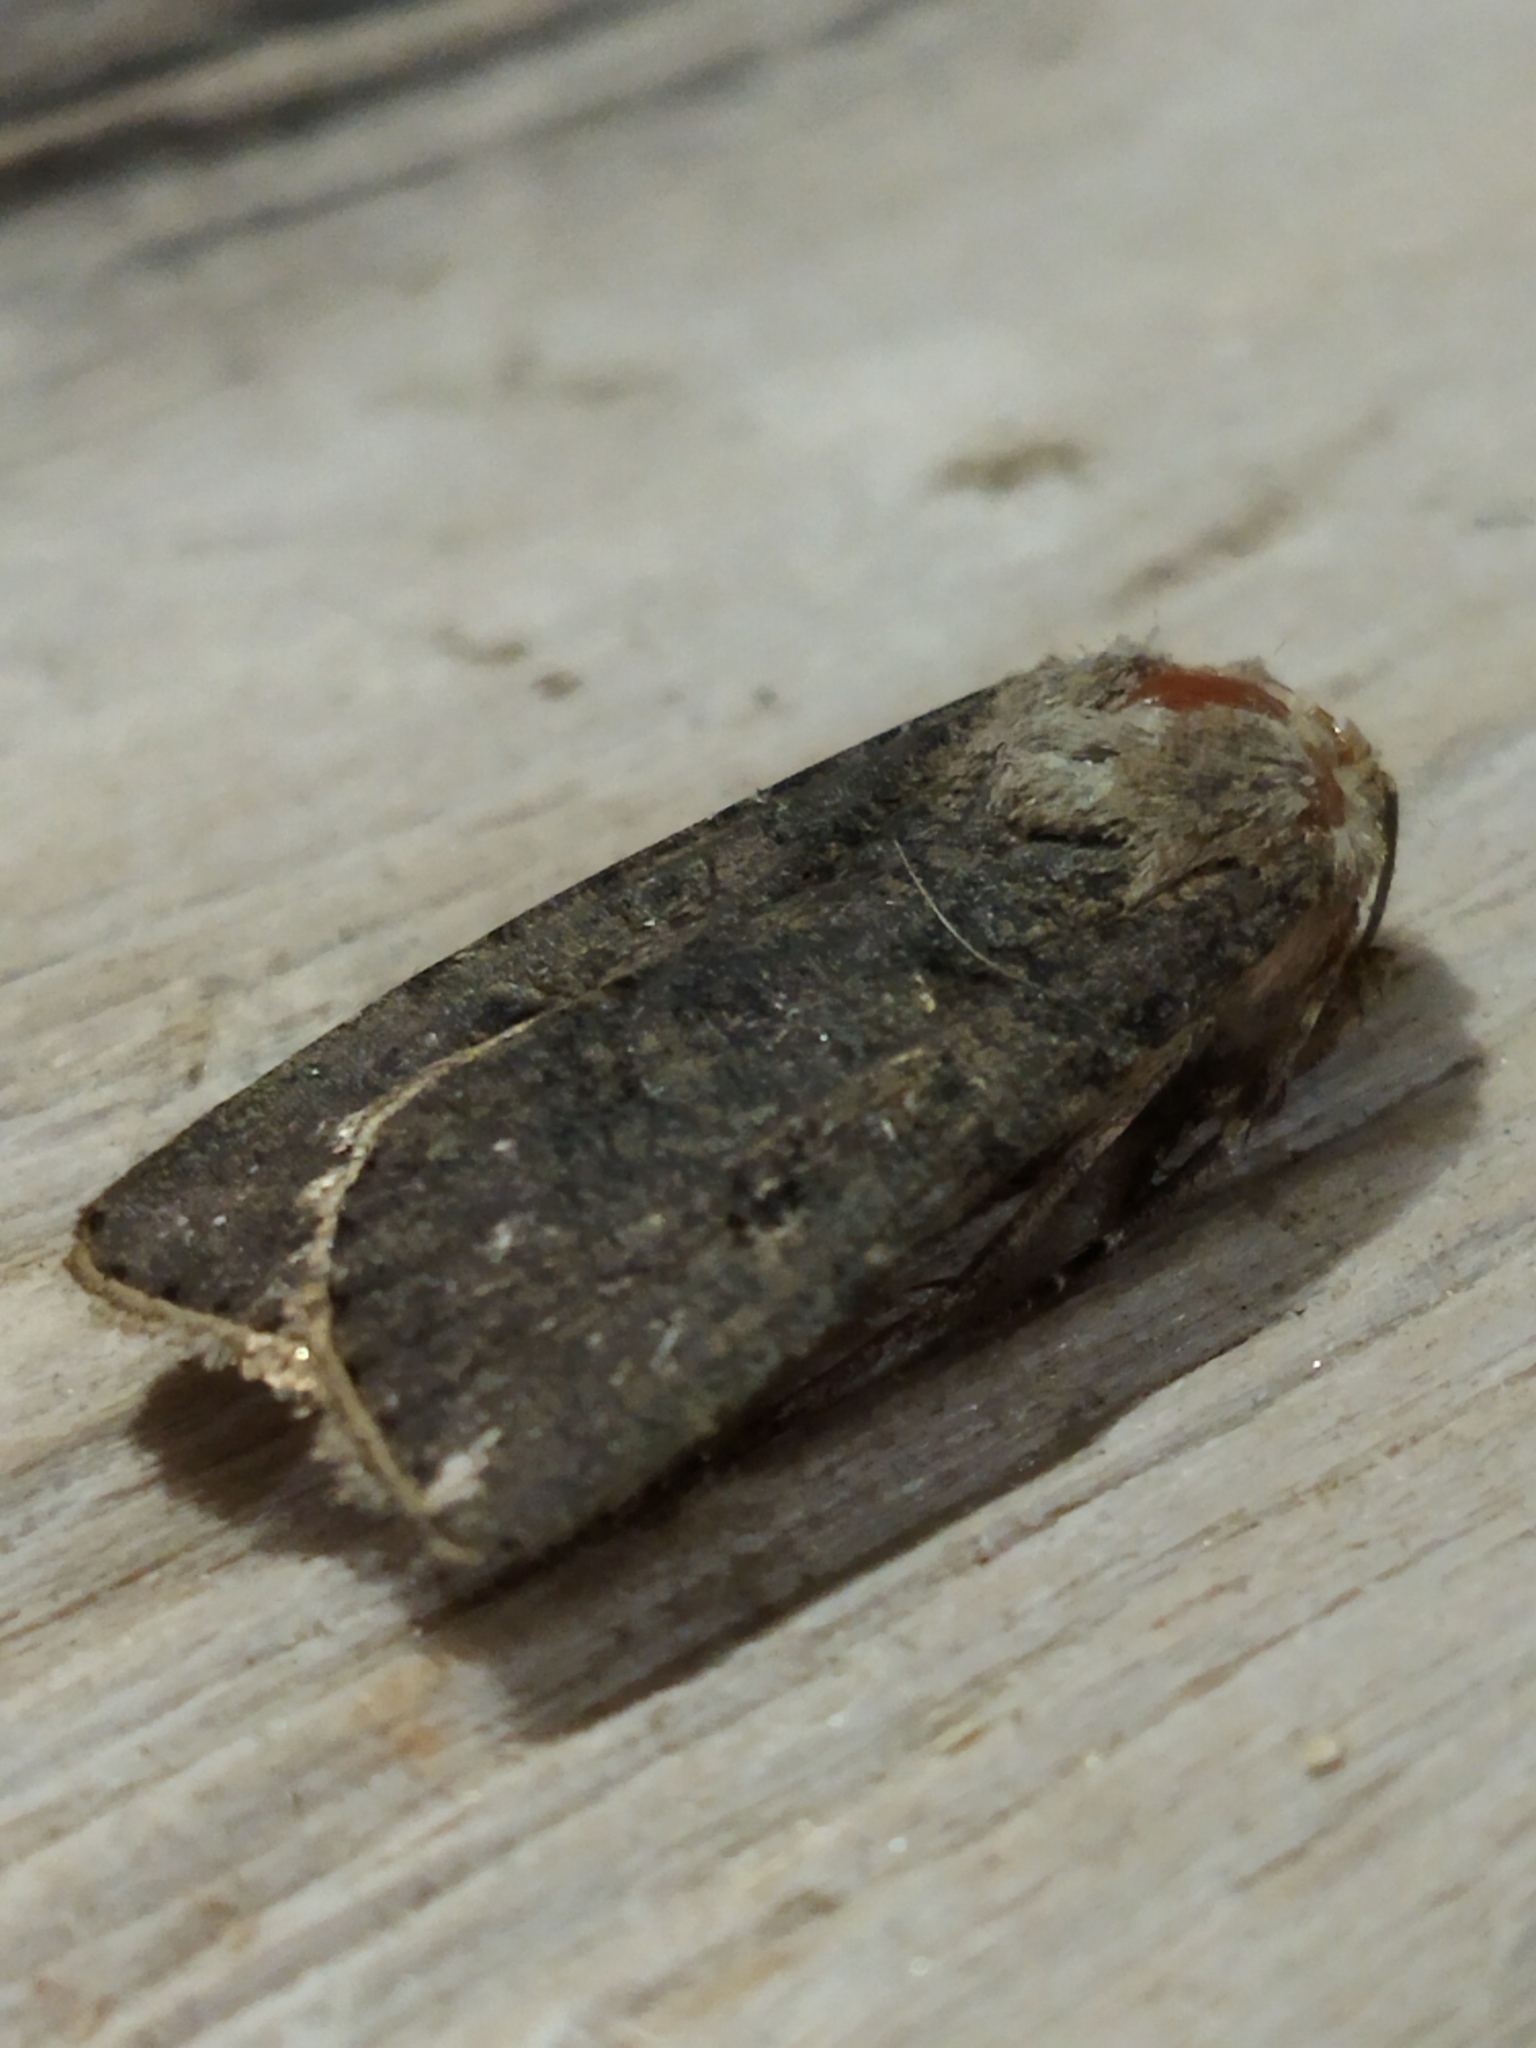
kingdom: Animalia
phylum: Arthropoda
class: Insecta
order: Lepidoptera
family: Noctuidae
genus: Agrotis
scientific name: Agrotis segetum
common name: Turnip moth
